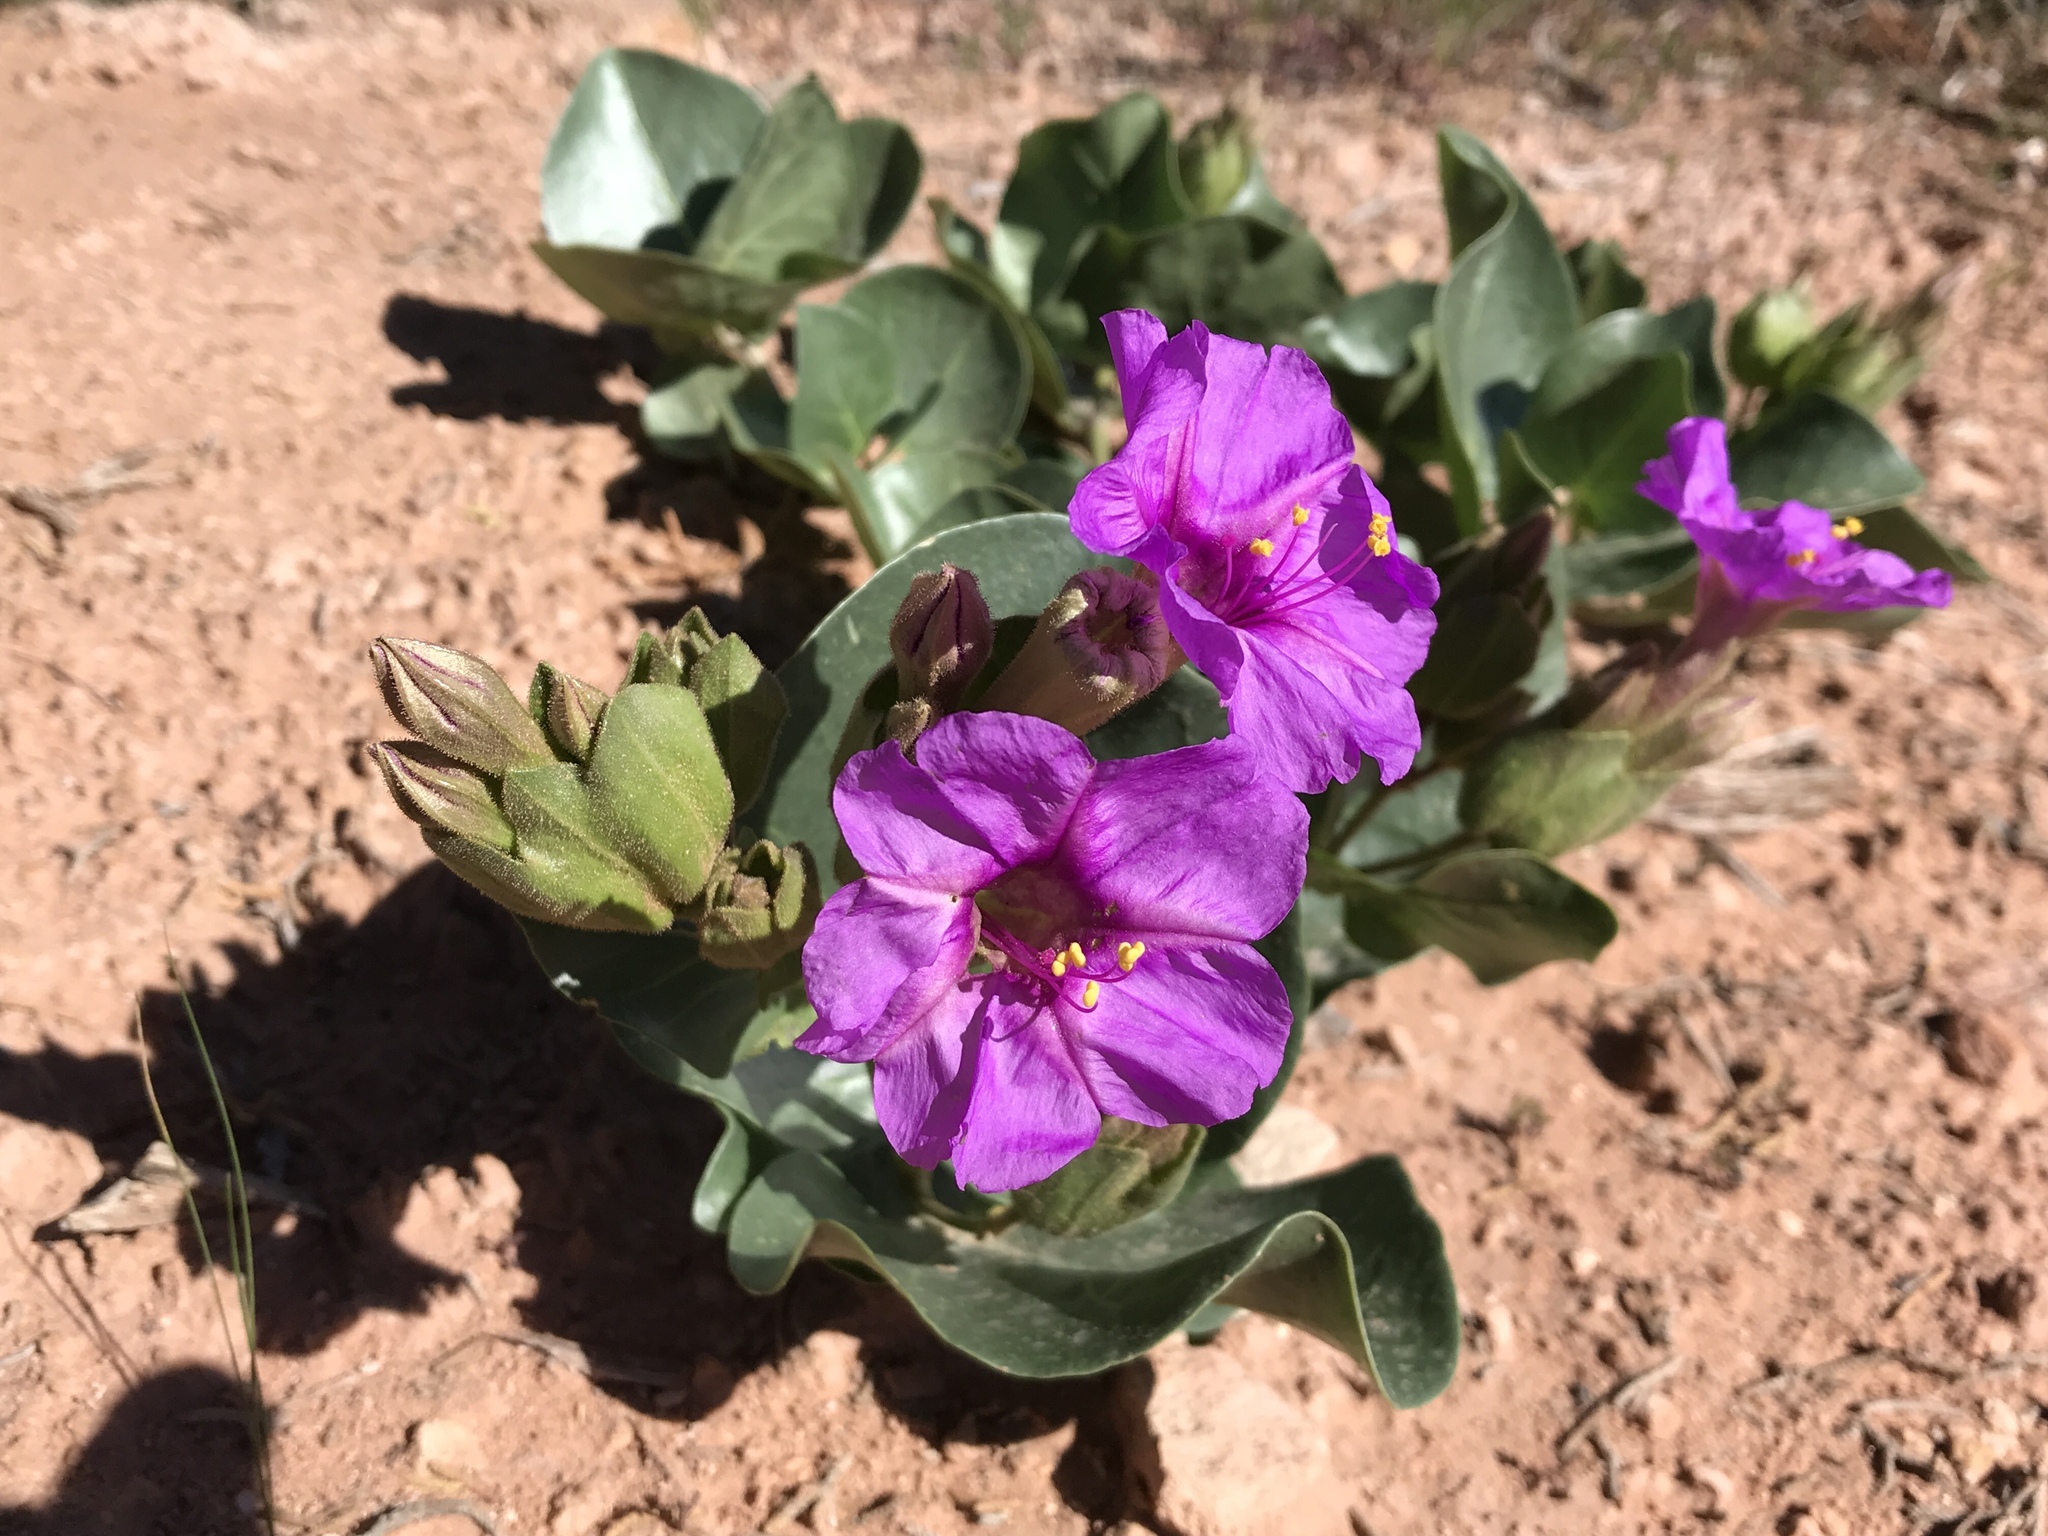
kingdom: Plantae
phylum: Tracheophyta
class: Magnoliopsida
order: Caryophyllales
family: Nyctaginaceae
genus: Mirabilis
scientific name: Mirabilis multiflora
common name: Froebel's four-o'clock
